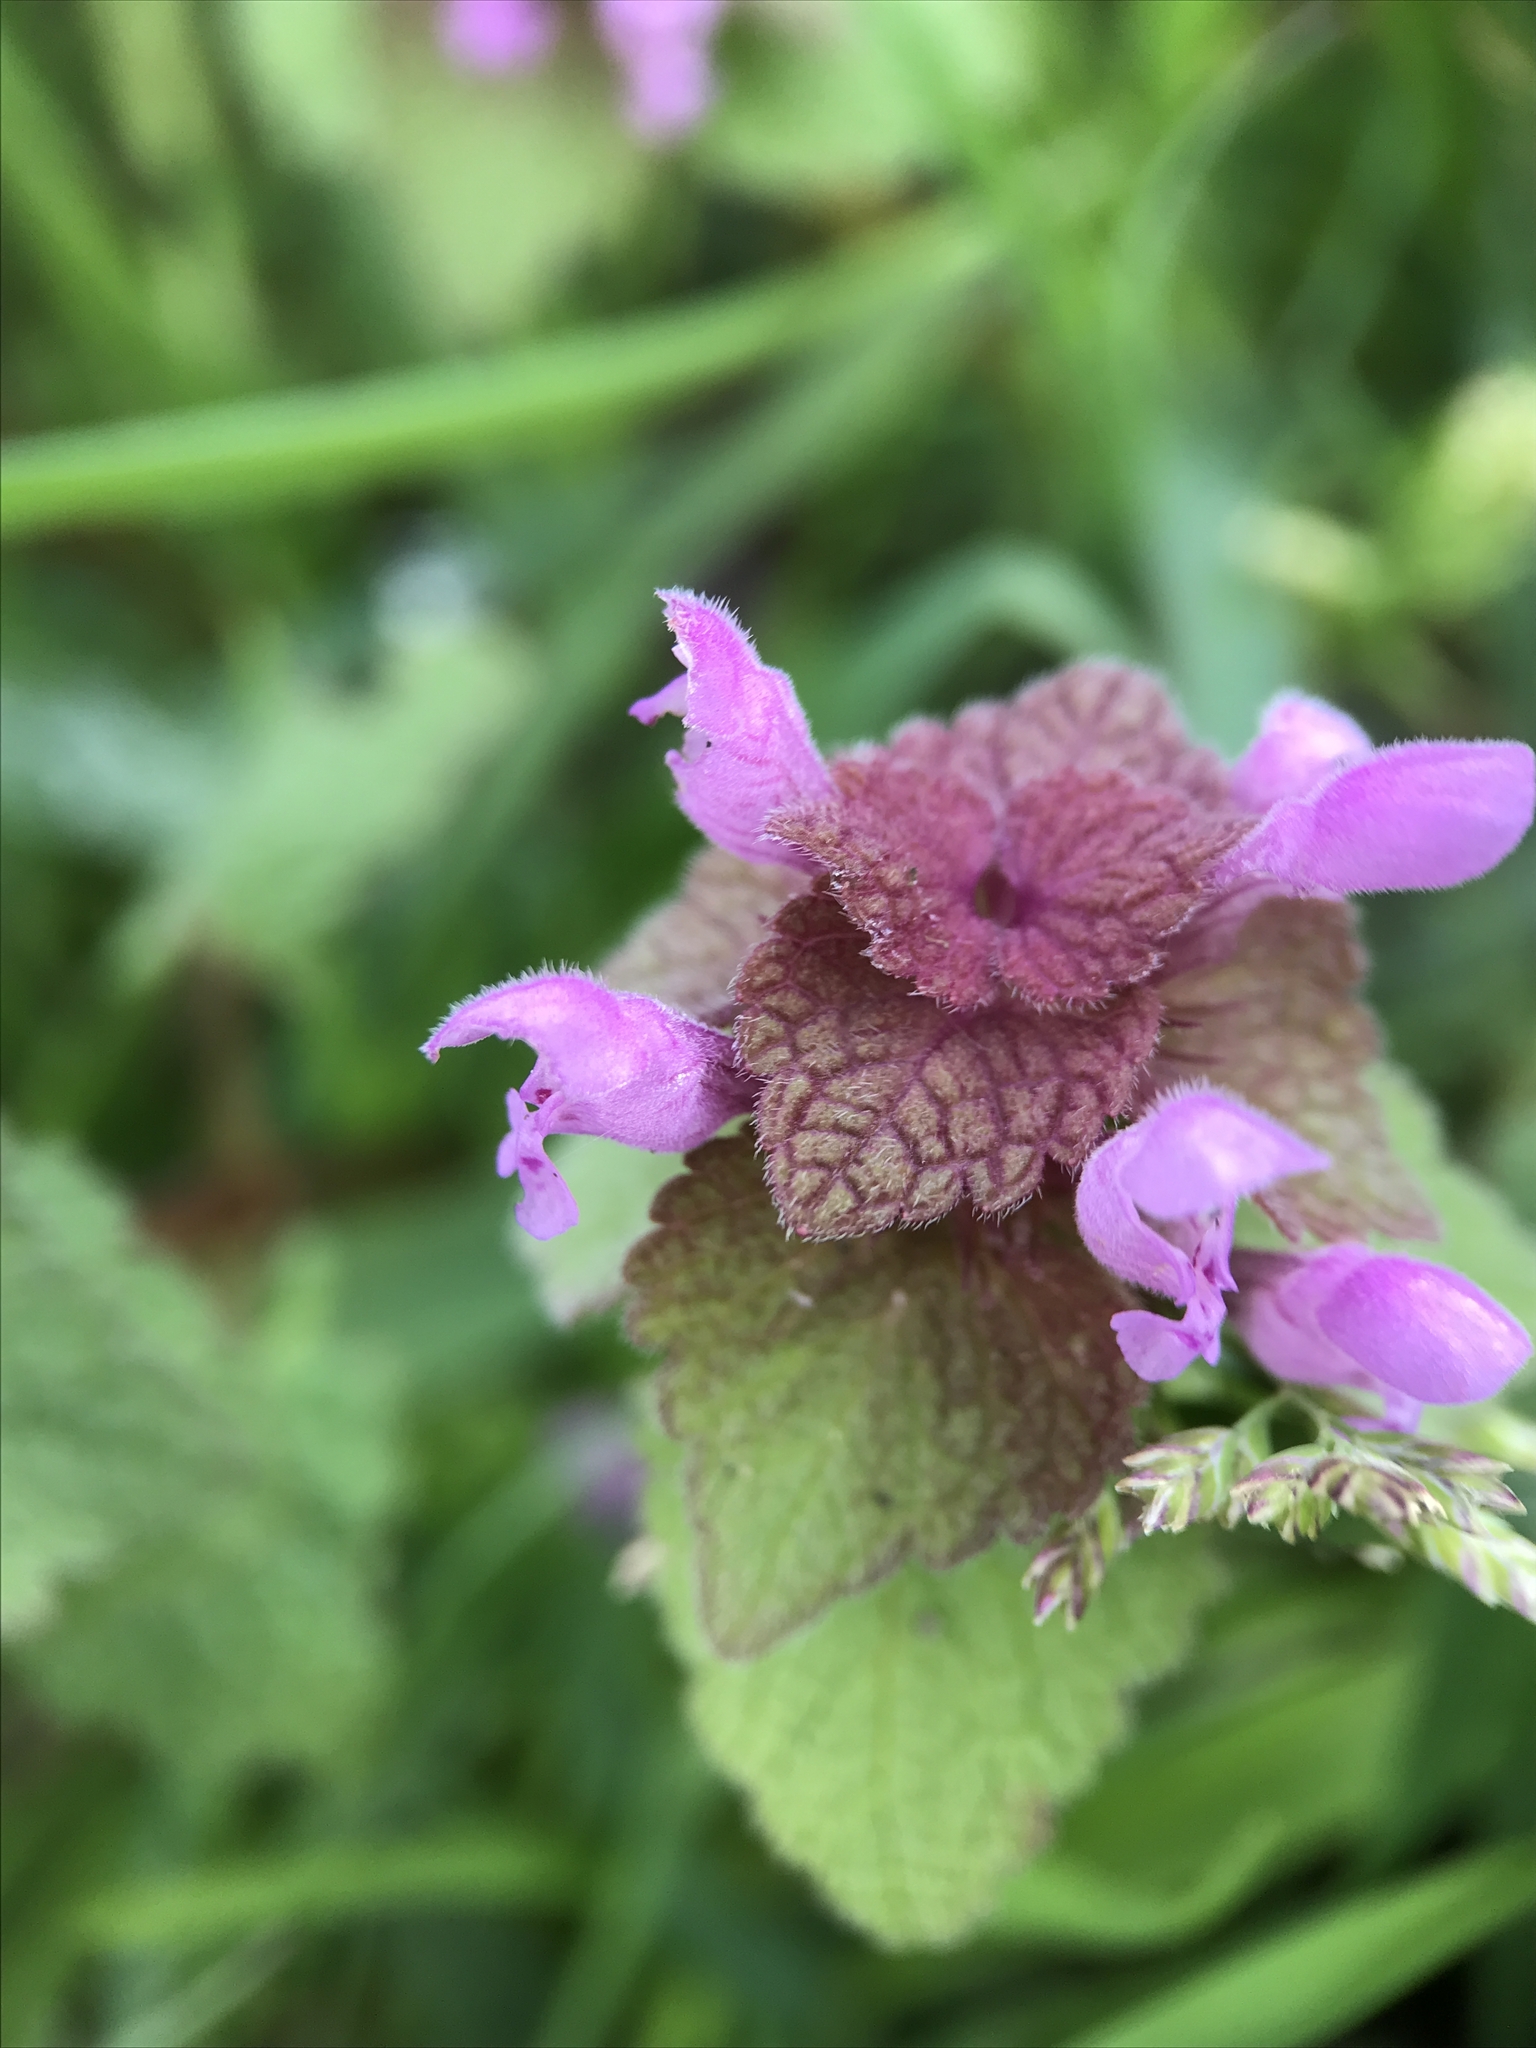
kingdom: Plantae
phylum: Tracheophyta
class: Magnoliopsida
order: Lamiales
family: Lamiaceae
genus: Lamium
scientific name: Lamium purpureum
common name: Red dead-nettle
